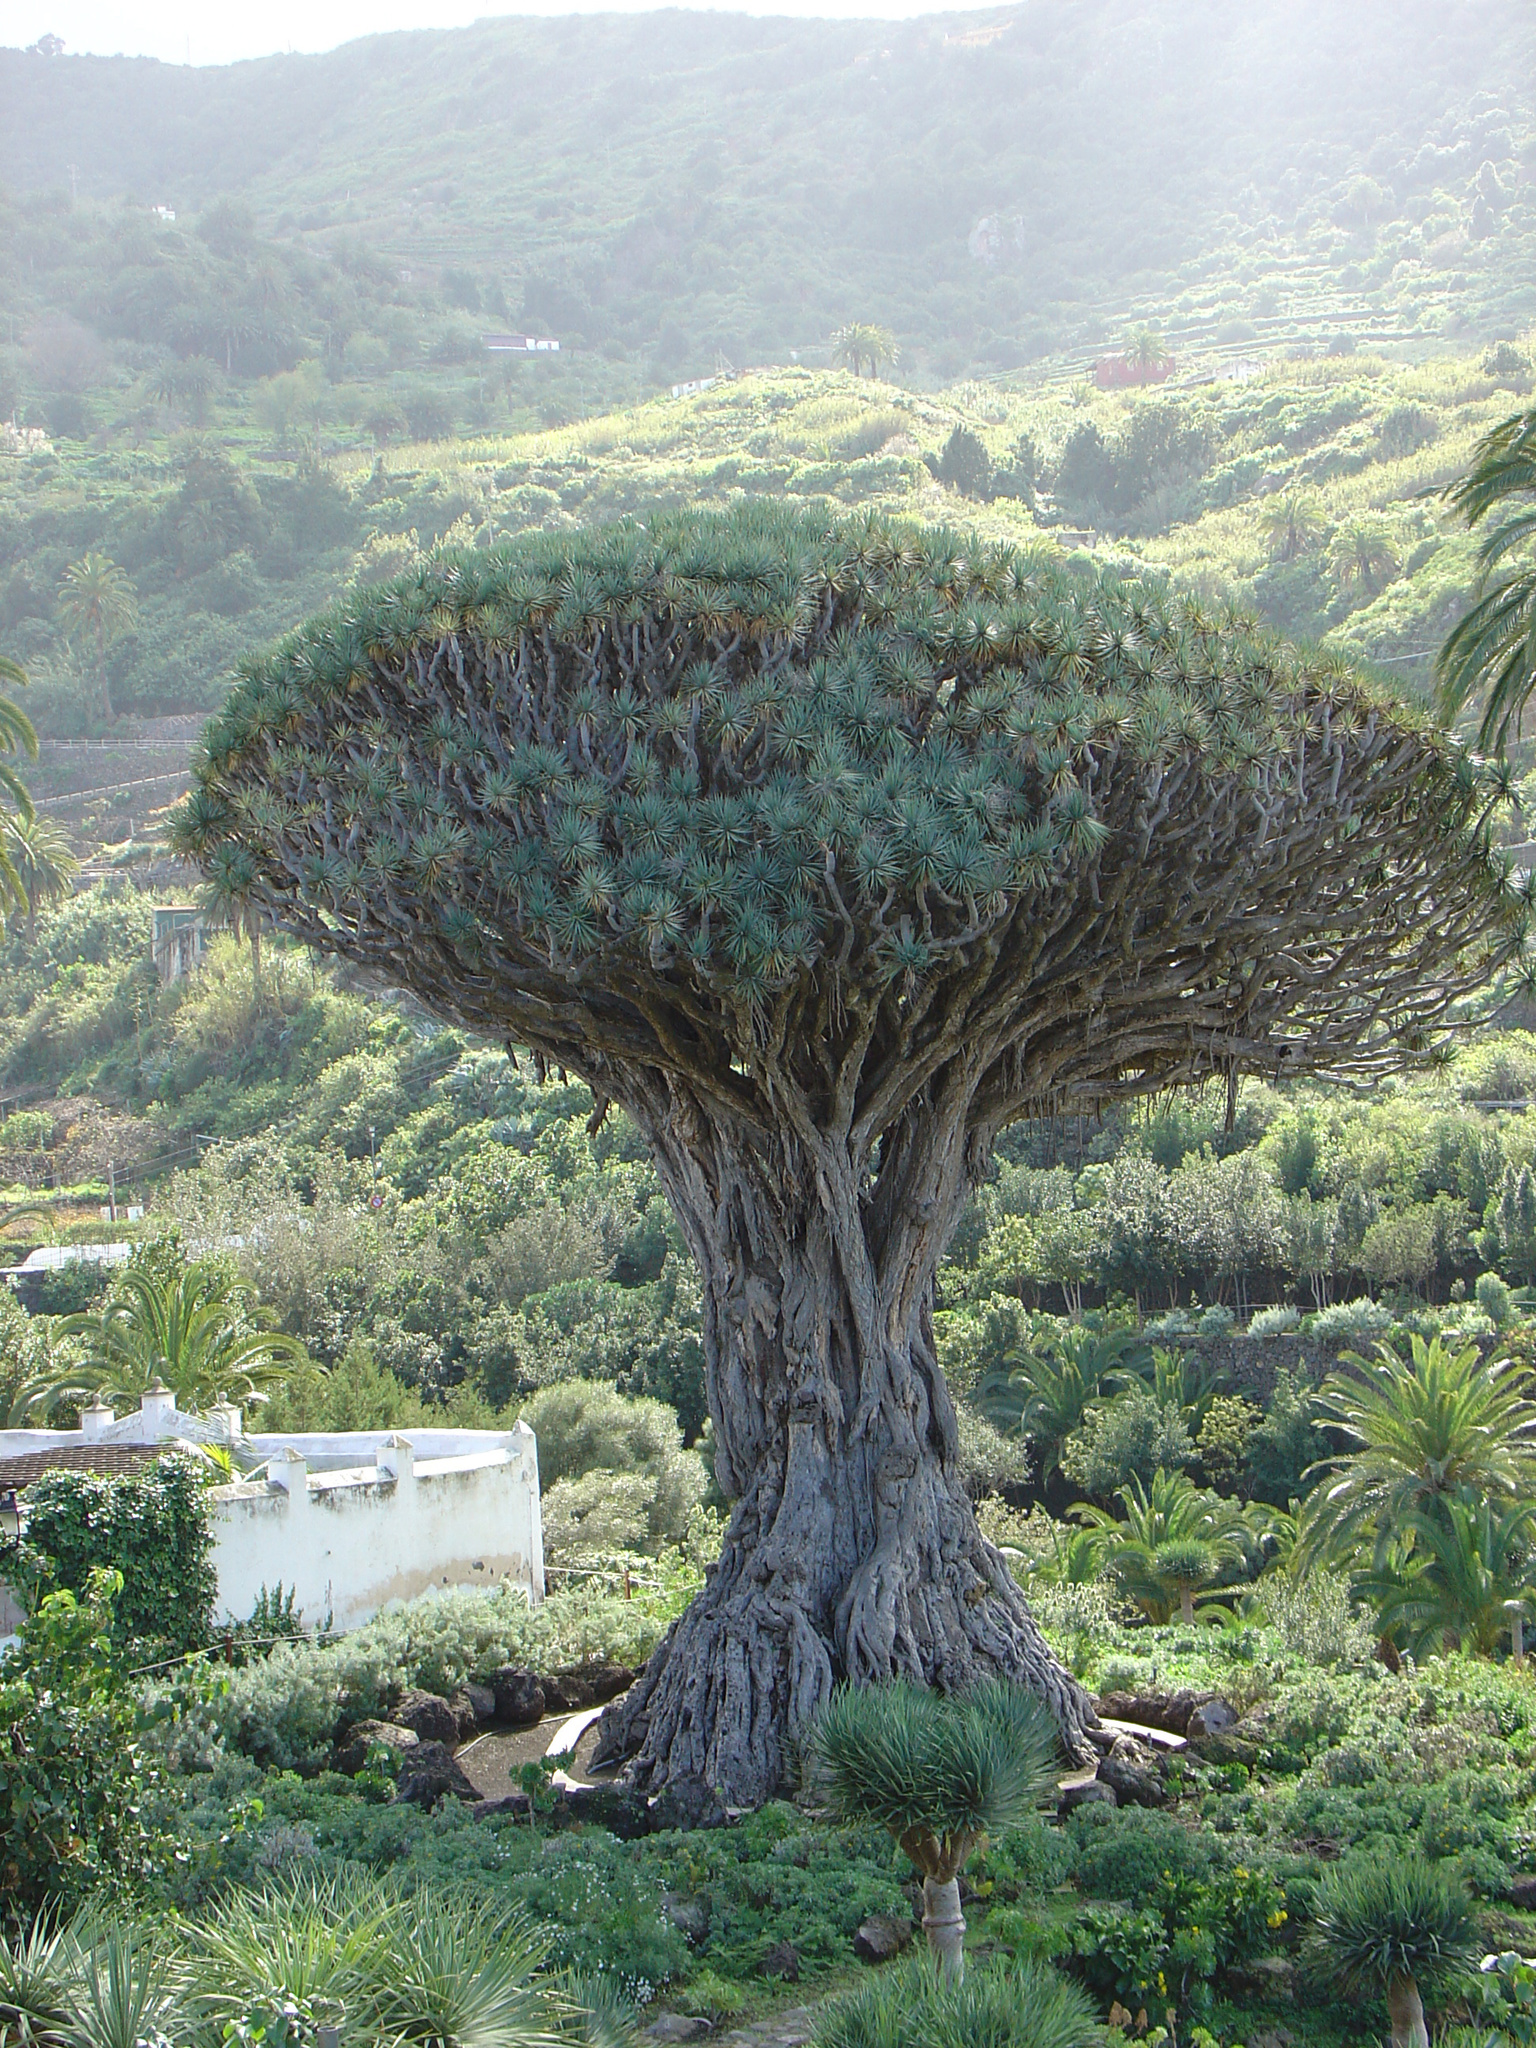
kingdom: Plantae
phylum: Tracheophyta
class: Liliopsida
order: Asparagales
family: Asparagaceae
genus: Dracaena
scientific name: Dracaena draco
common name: Canary island dragon tree
